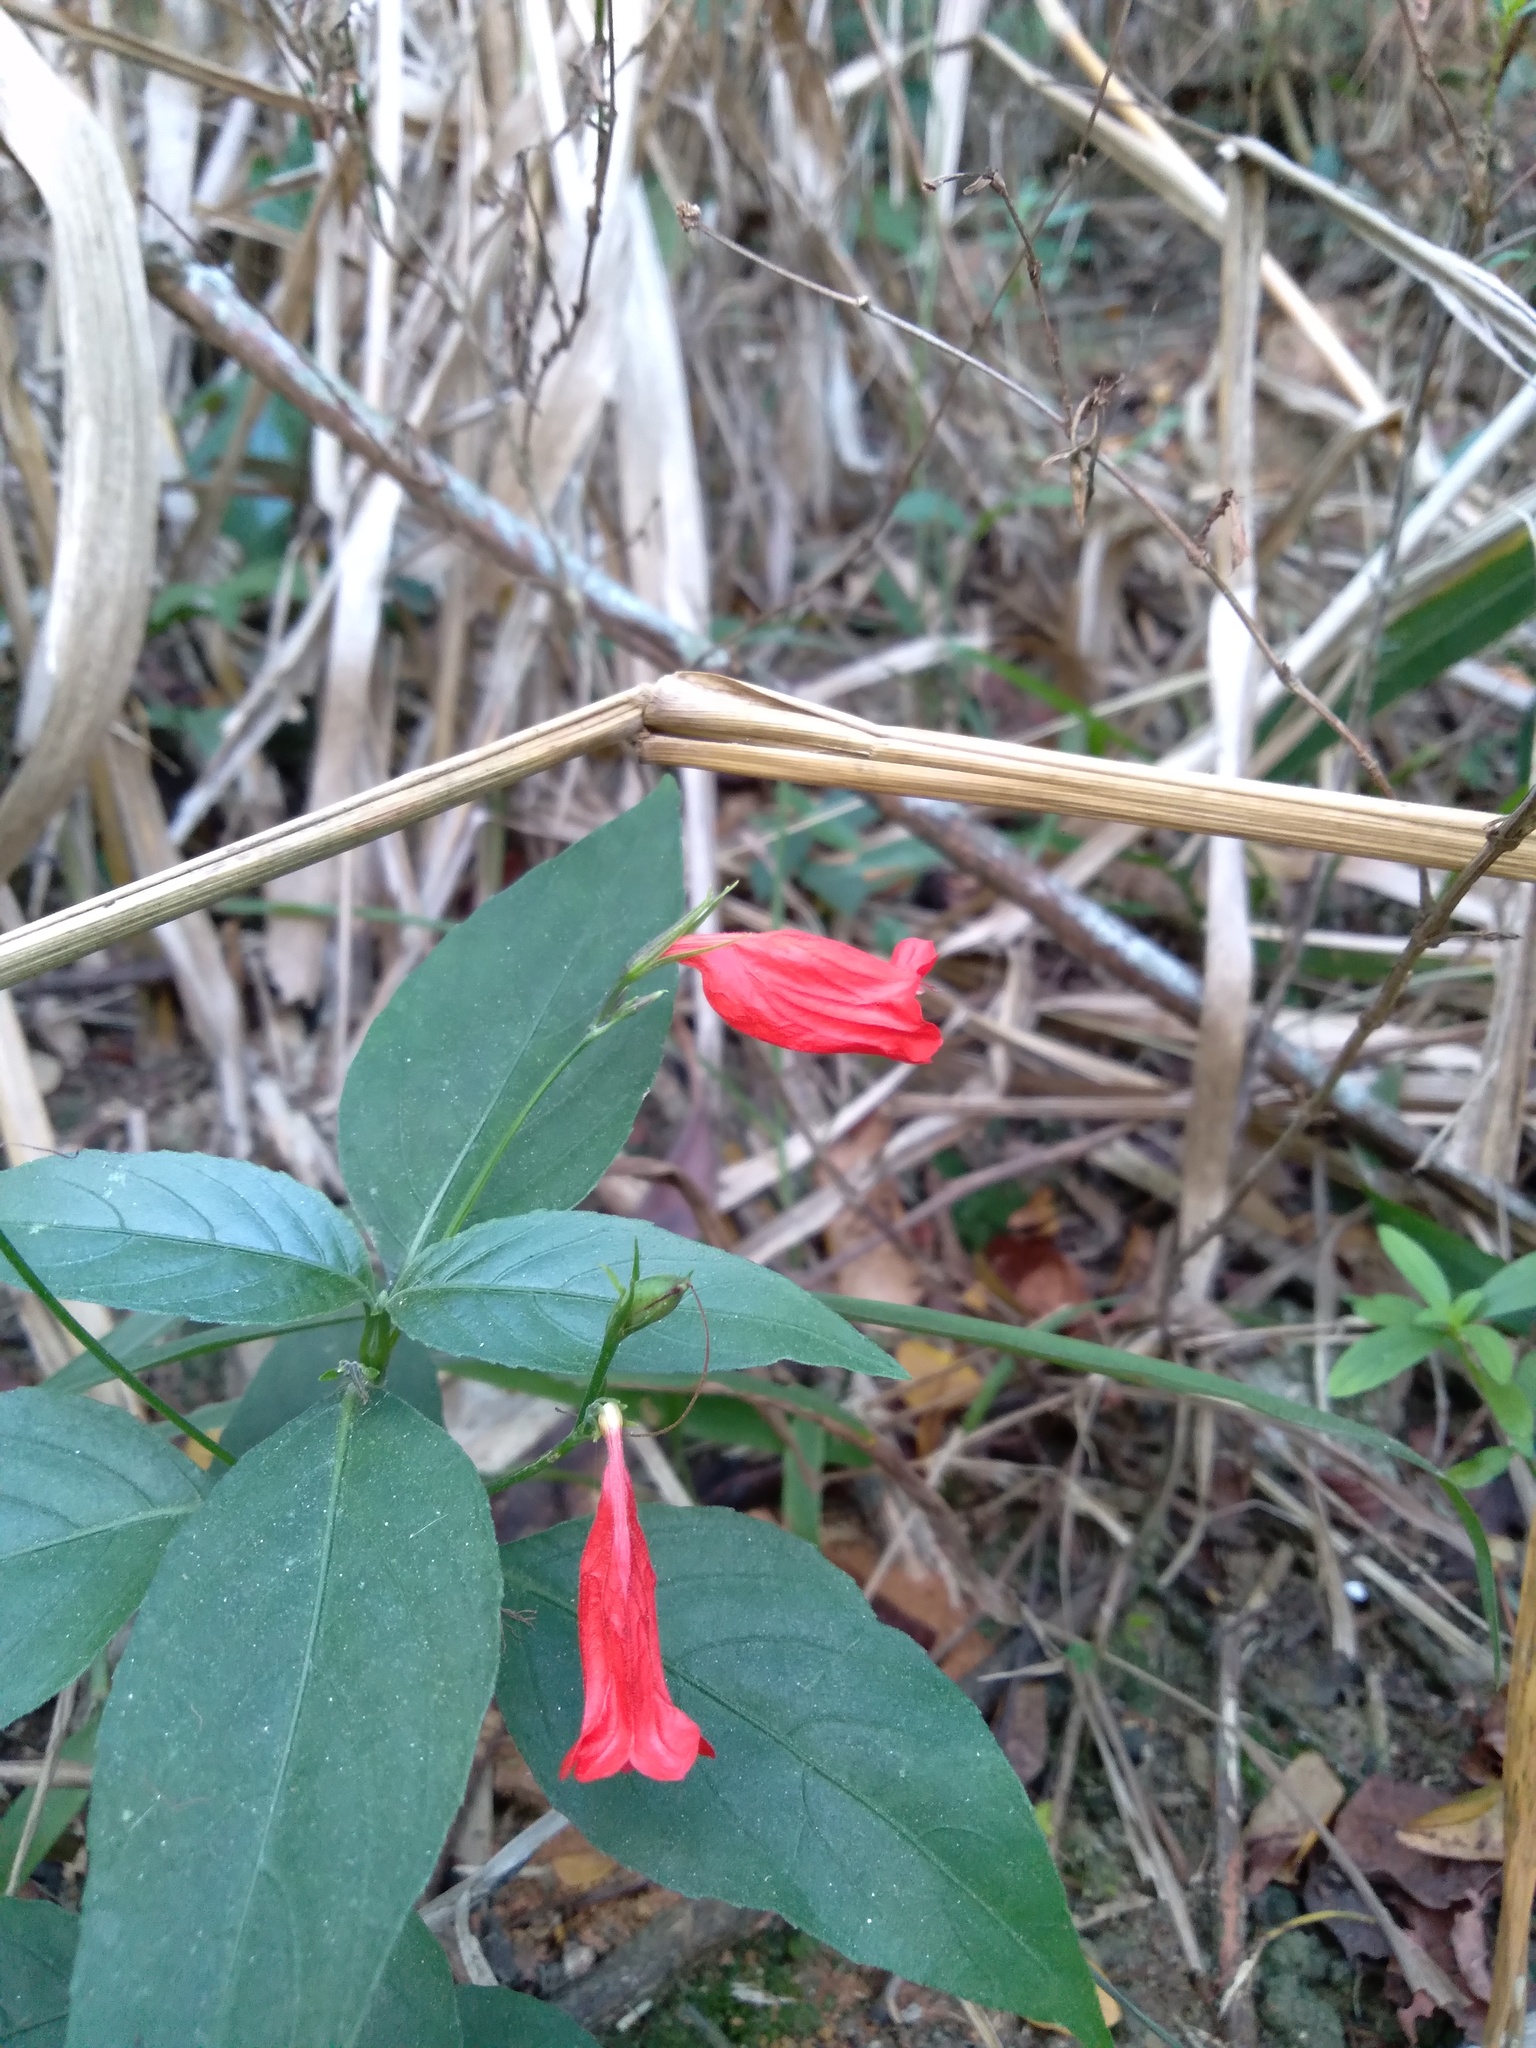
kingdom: Plantae
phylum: Tracheophyta
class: Magnoliopsida
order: Lamiales
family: Acanthaceae
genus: Ruellia
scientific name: Ruellia brevifolia
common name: Tropical wild petunia
